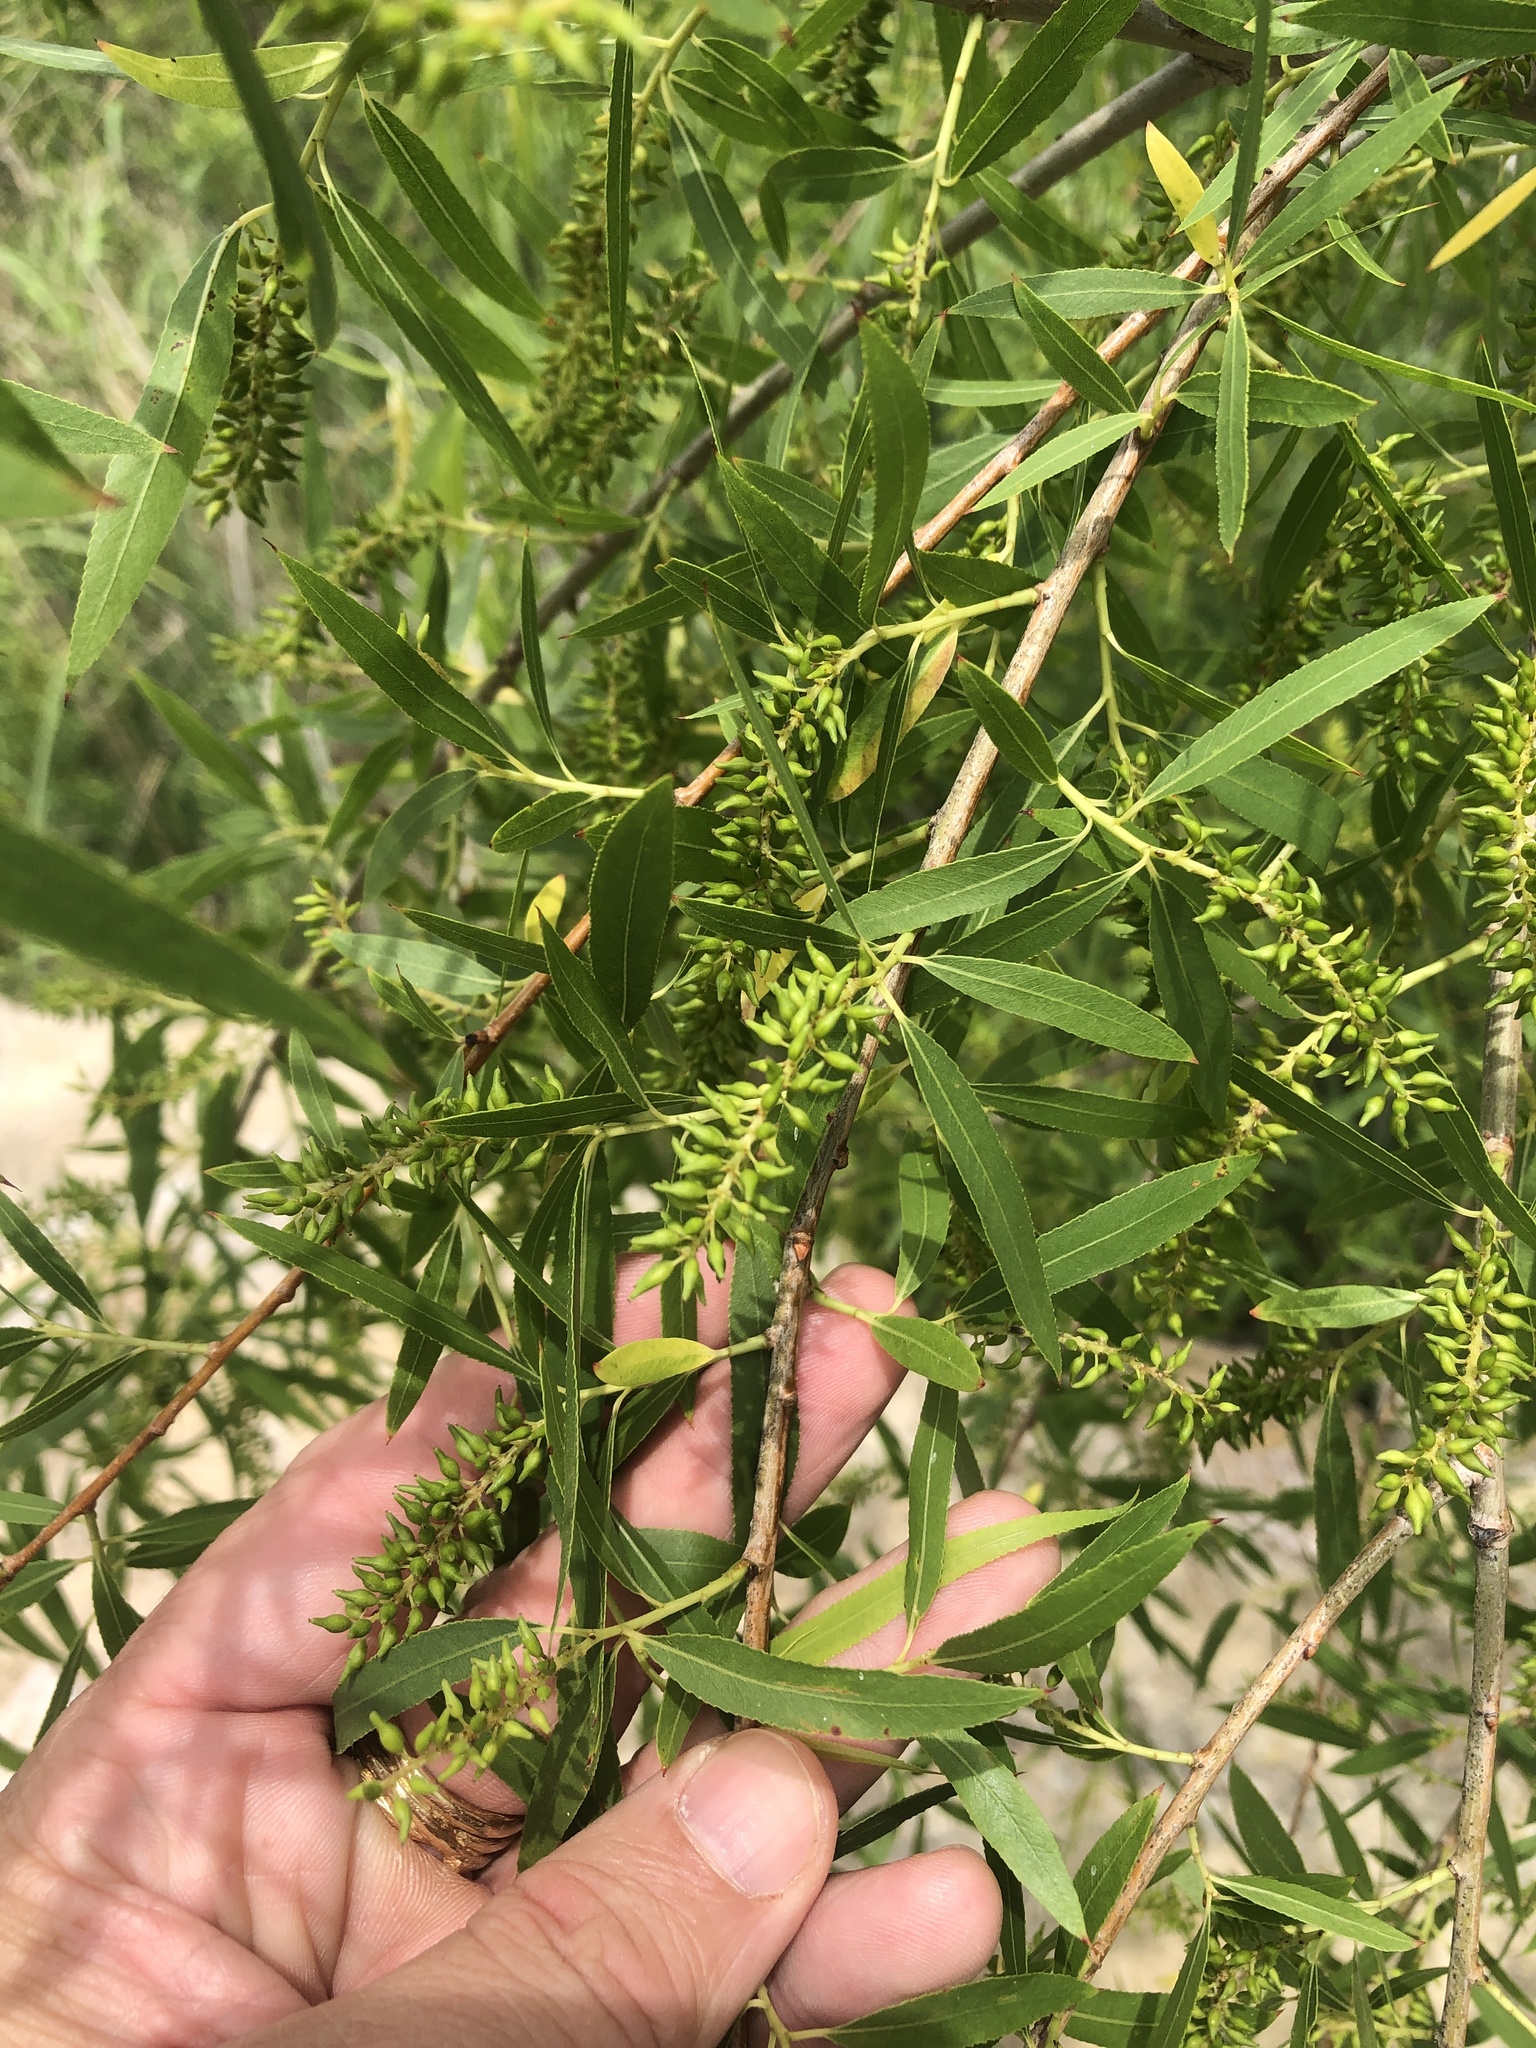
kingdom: Plantae
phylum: Tracheophyta
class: Magnoliopsida
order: Malpighiales
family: Salicaceae
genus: Salix
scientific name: Salix nigra
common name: Black willow
